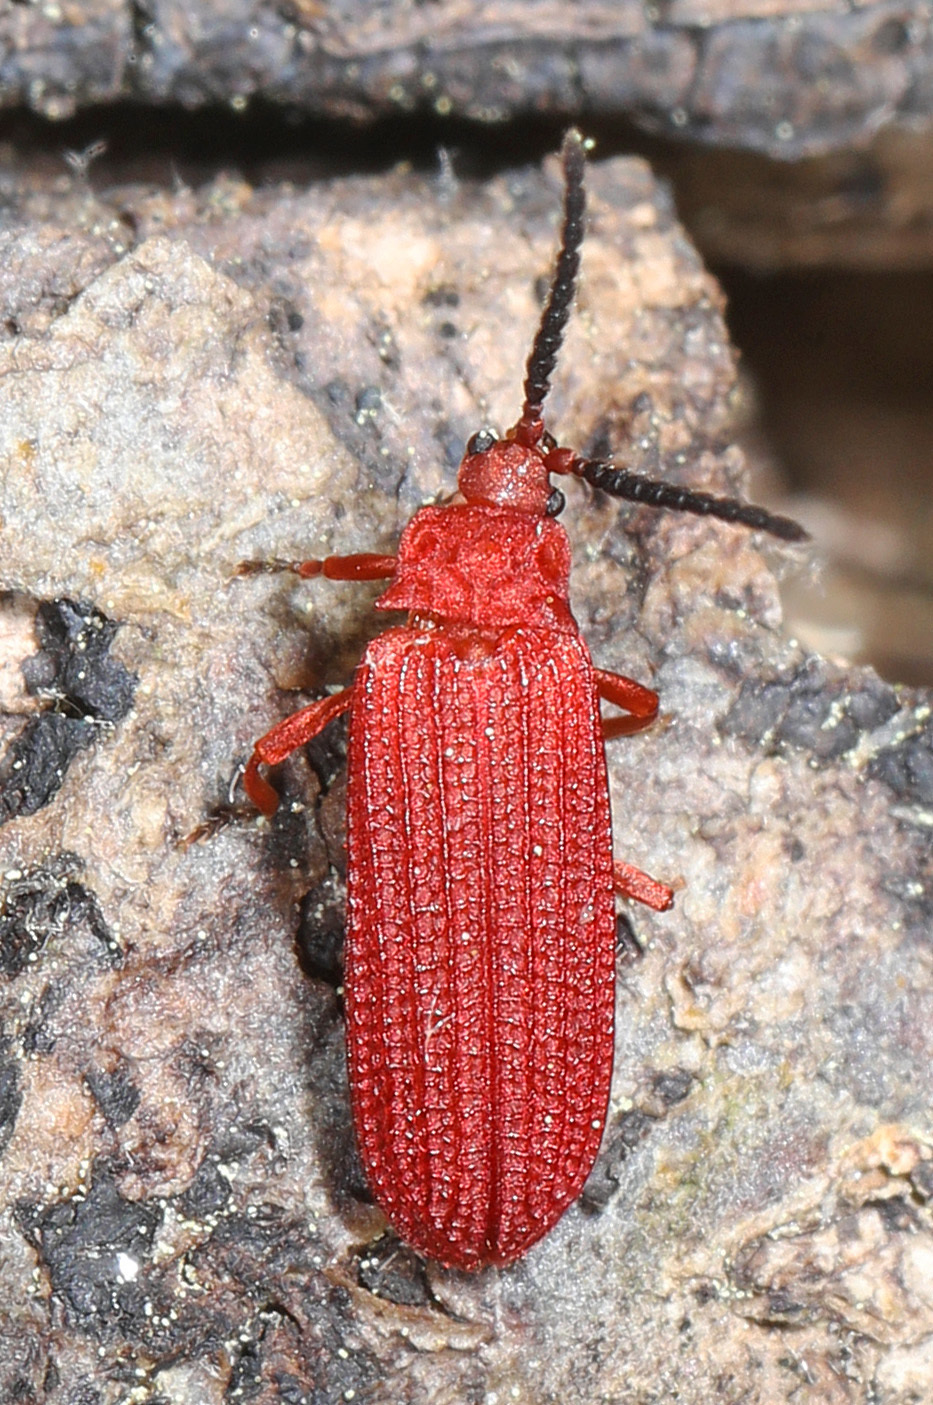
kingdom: Animalia
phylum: Arthropoda
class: Insecta
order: Coleoptera
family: Lycidae
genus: Punicealis
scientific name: Punicealis
